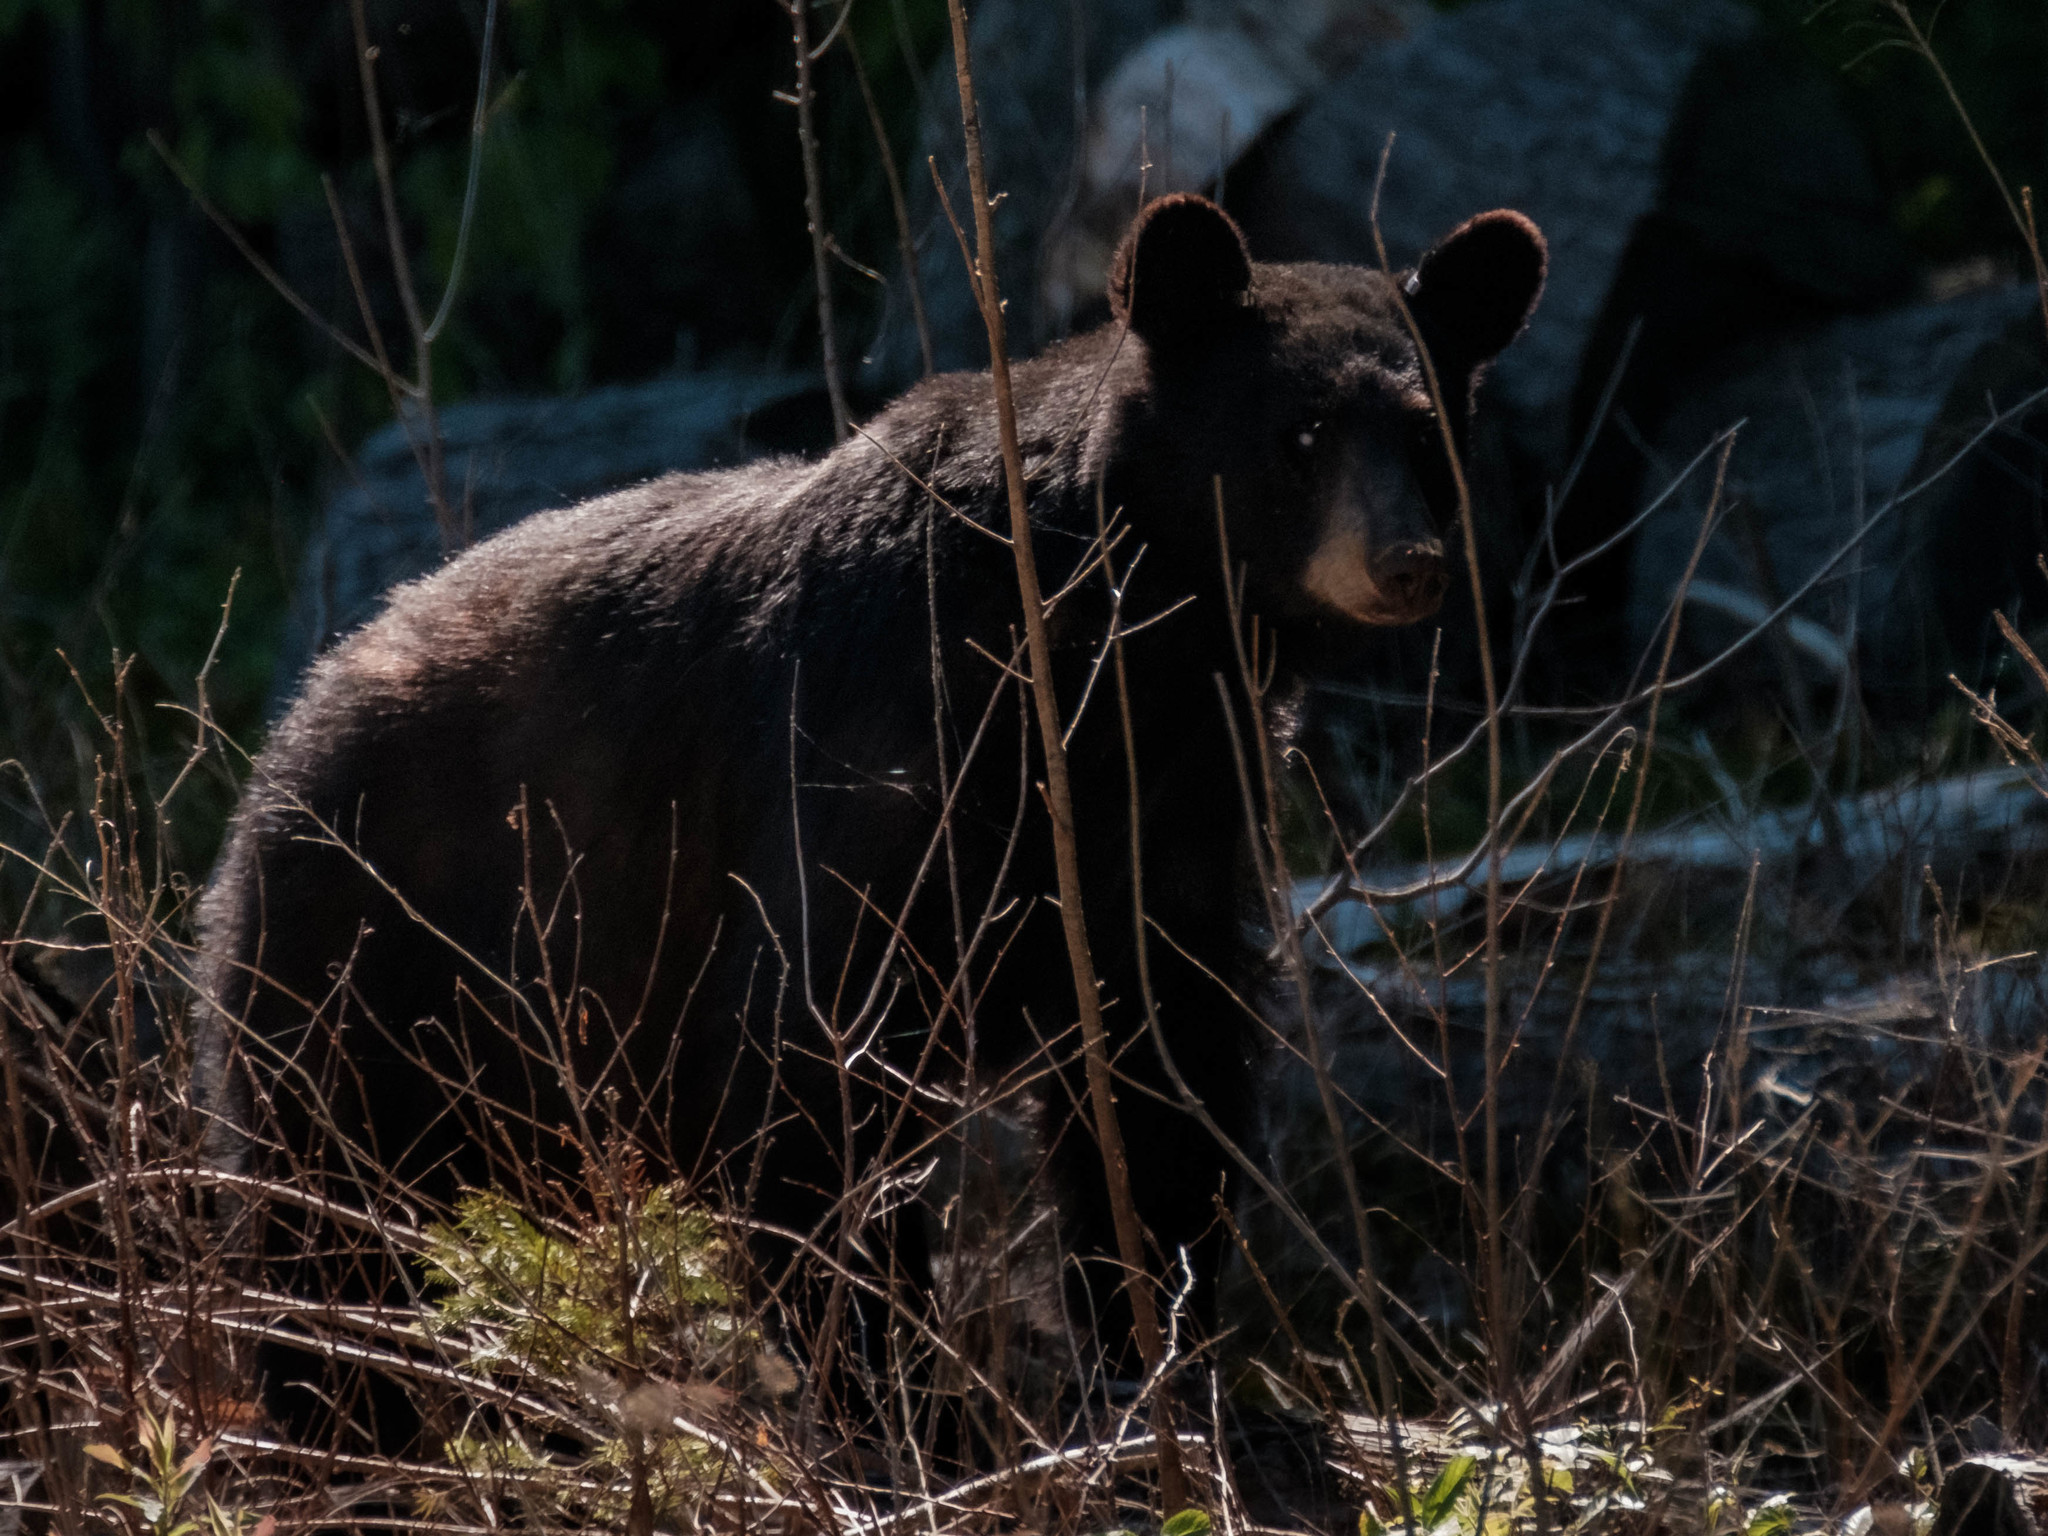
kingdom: Animalia
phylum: Chordata
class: Mammalia
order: Carnivora
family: Ursidae
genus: Ursus
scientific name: Ursus americanus
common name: American black bear
